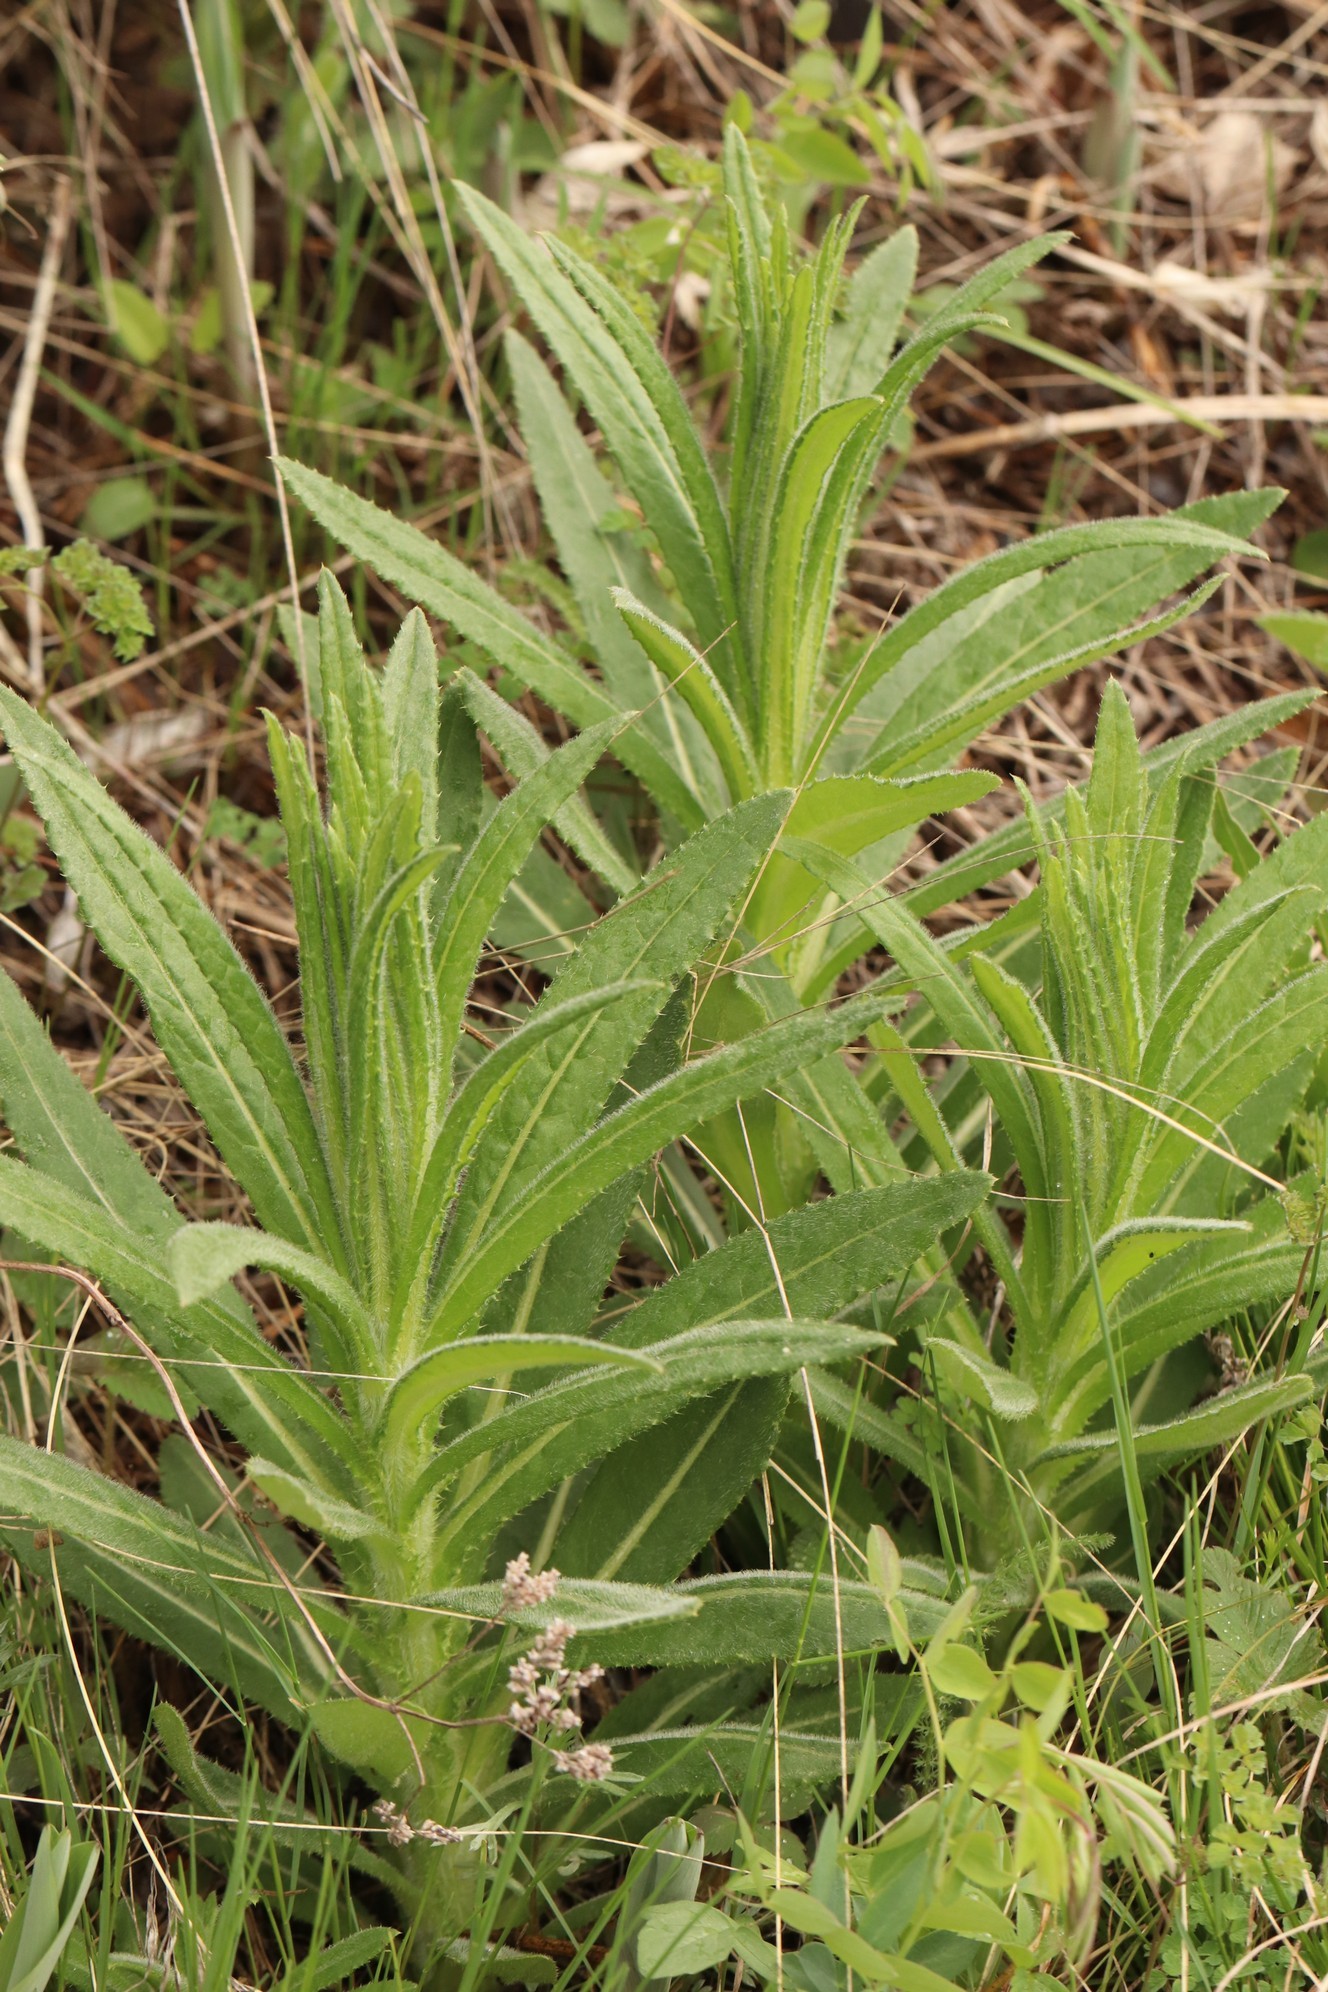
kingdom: Plantae
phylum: Tracheophyta
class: Magnoliopsida
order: Asterales
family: Asteraceae
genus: Cirsium
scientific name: Cirsium arvense
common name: Creeping thistle
